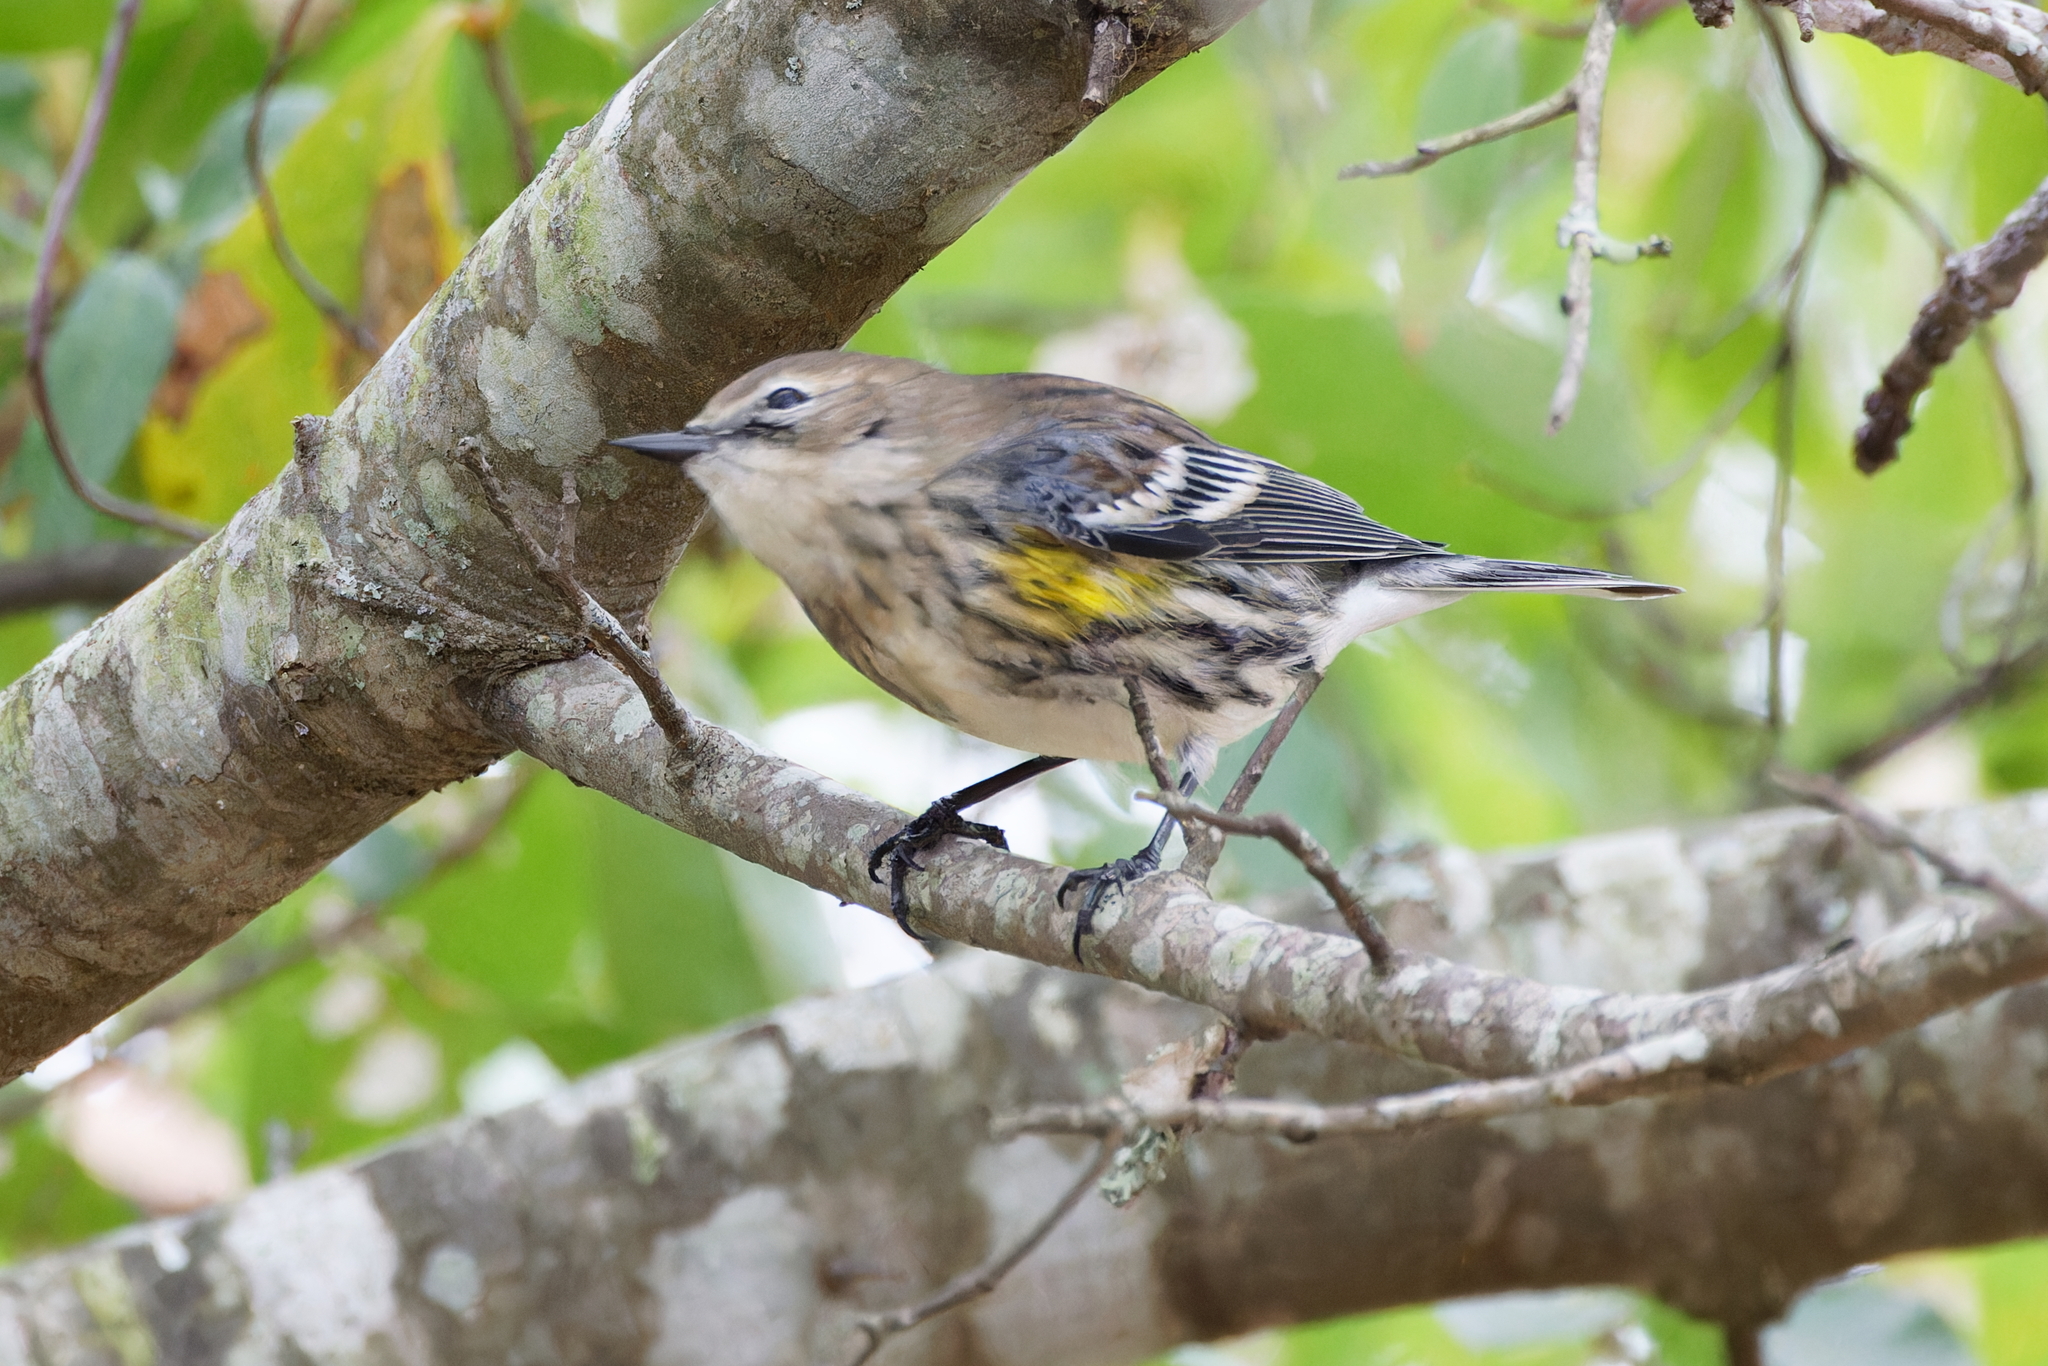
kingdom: Animalia
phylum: Chordata
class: Aves
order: Passeriformes
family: Parulidae
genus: Setophaga
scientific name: Setophaga coronata
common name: Myrtle warbler
